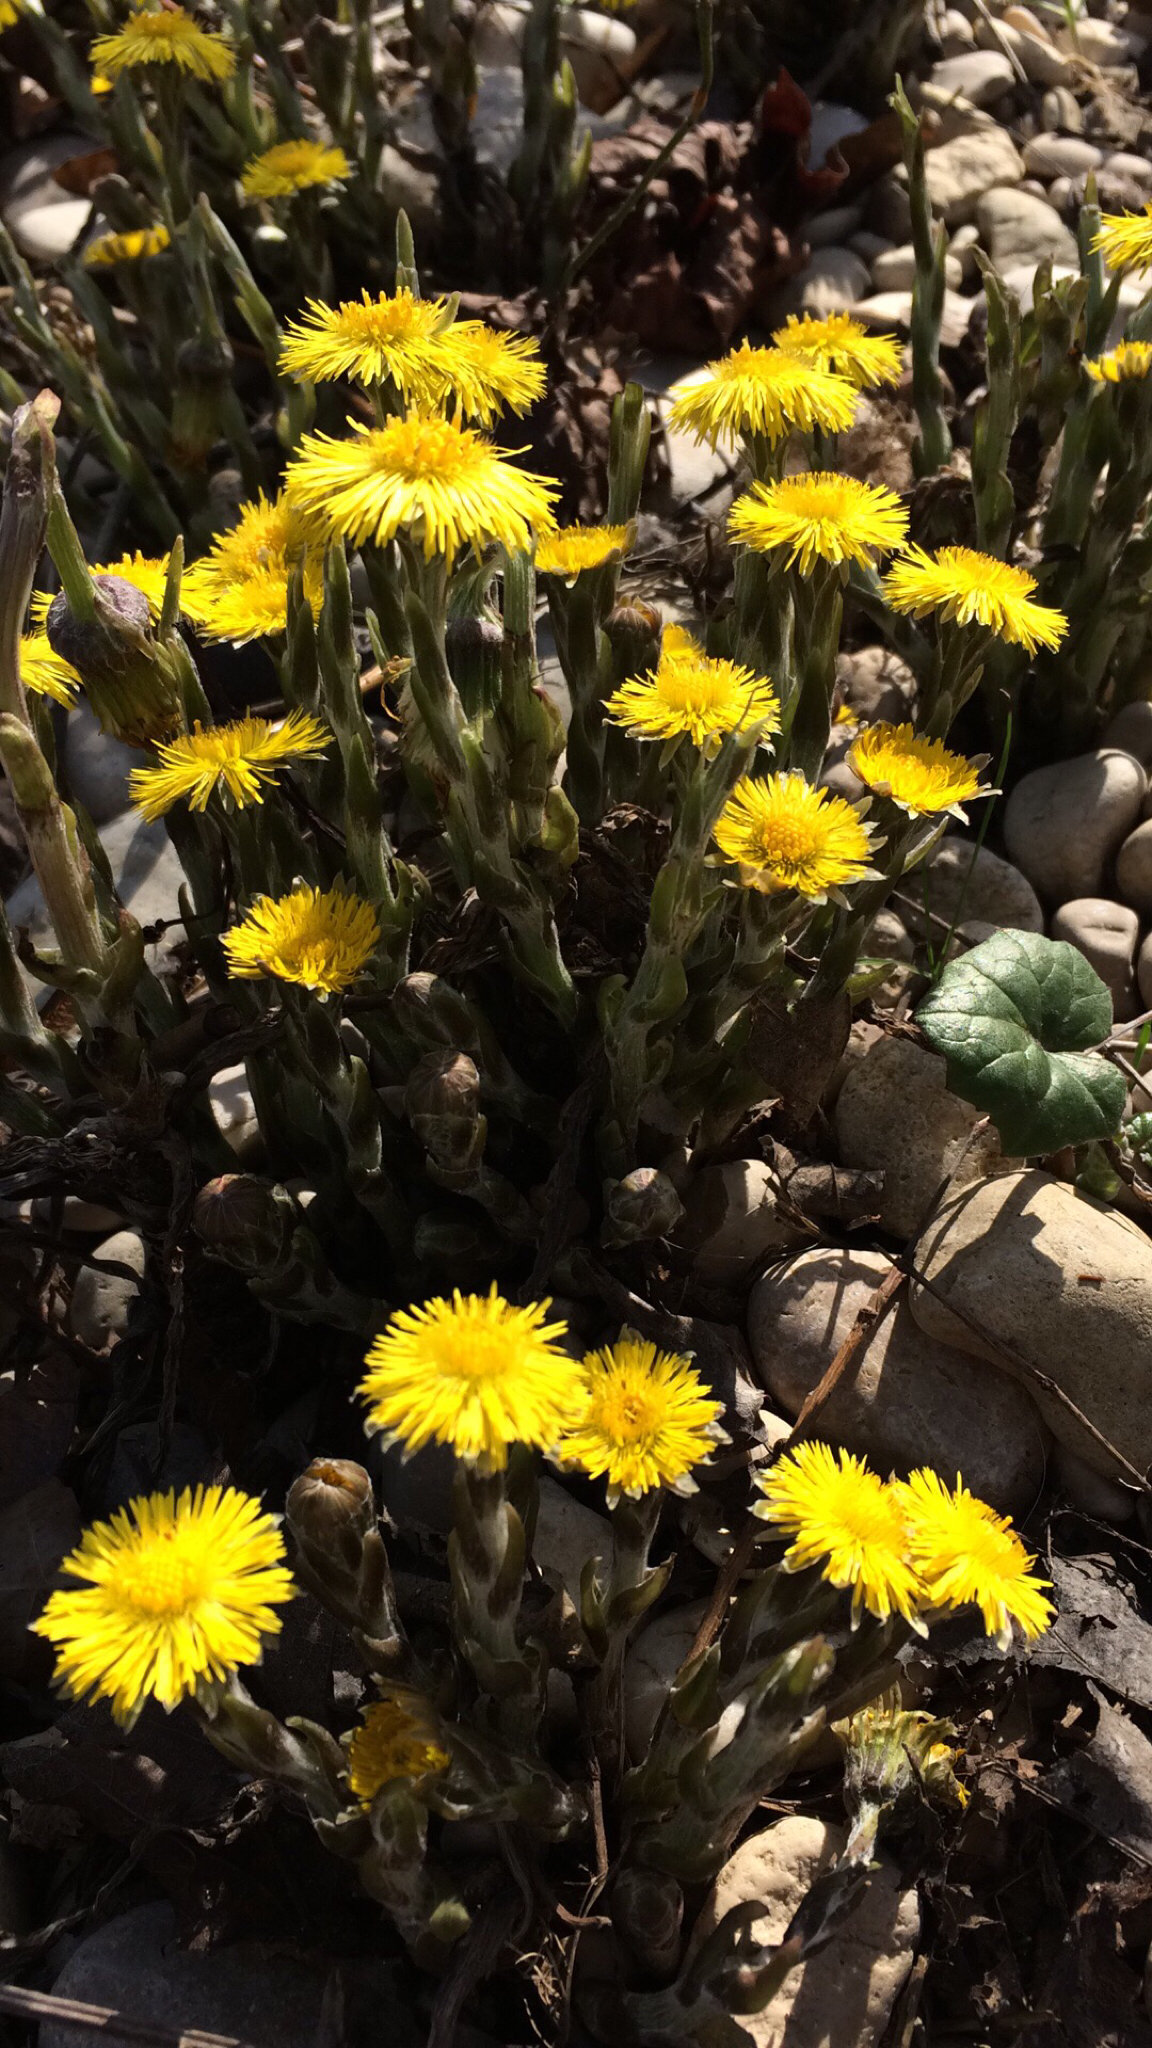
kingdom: Plantae
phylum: Tracheophyta
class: Magnoliopsida
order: Asterales
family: Asteraceae
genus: Tussilago
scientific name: Tussilago farfara
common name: Coltsfoot
